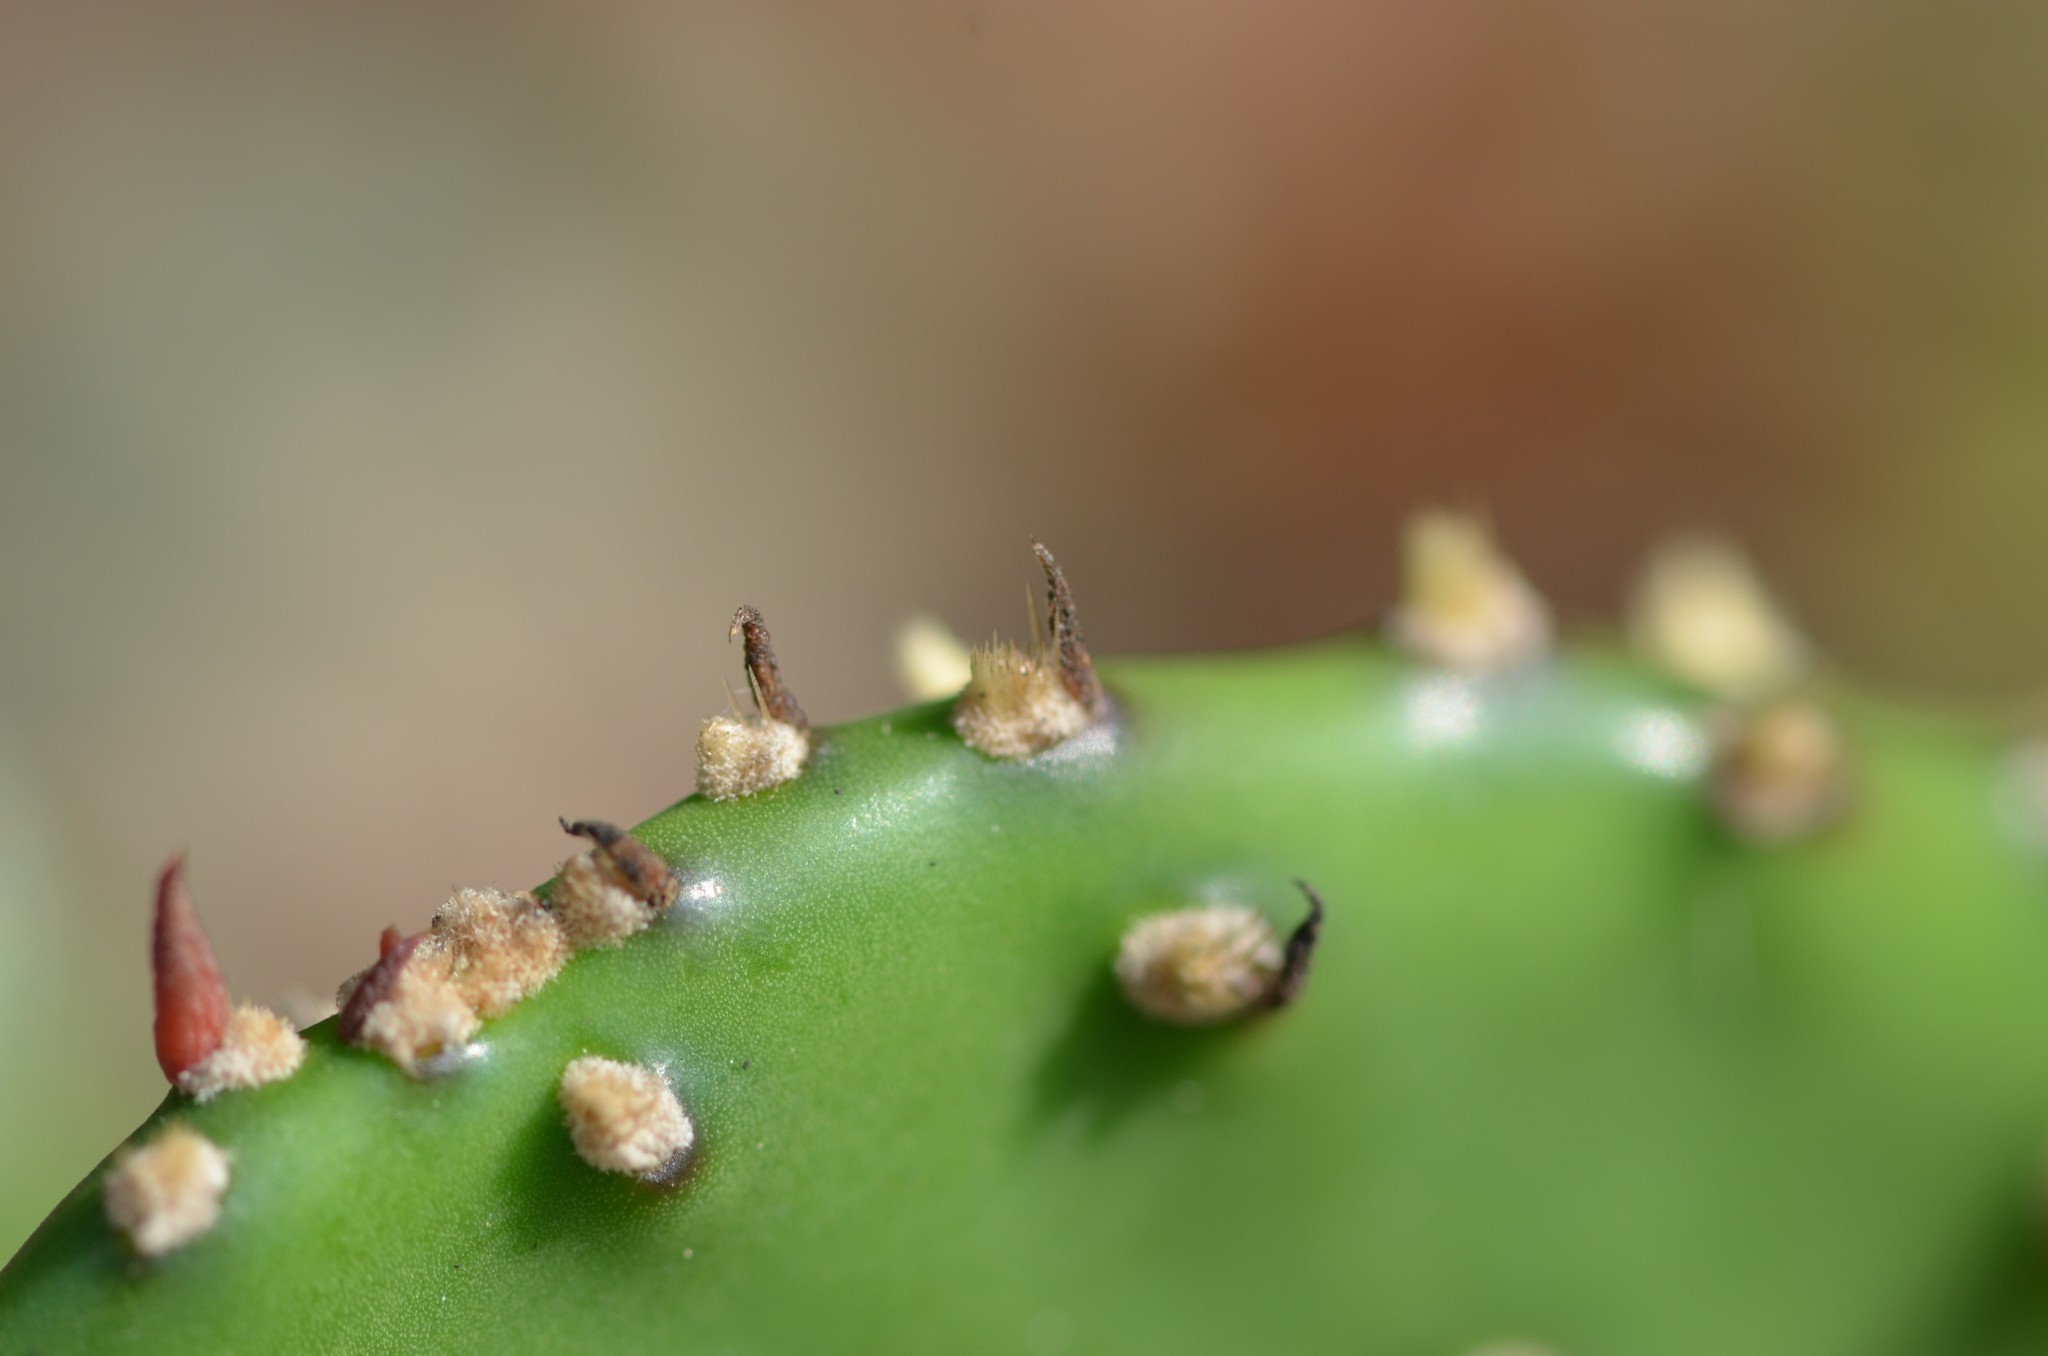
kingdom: Plantae
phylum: Tracheophyta
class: Magnoliopsida
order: Caryophyllales
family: Cactaceae
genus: Opuntia
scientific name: Opuntia austrina
